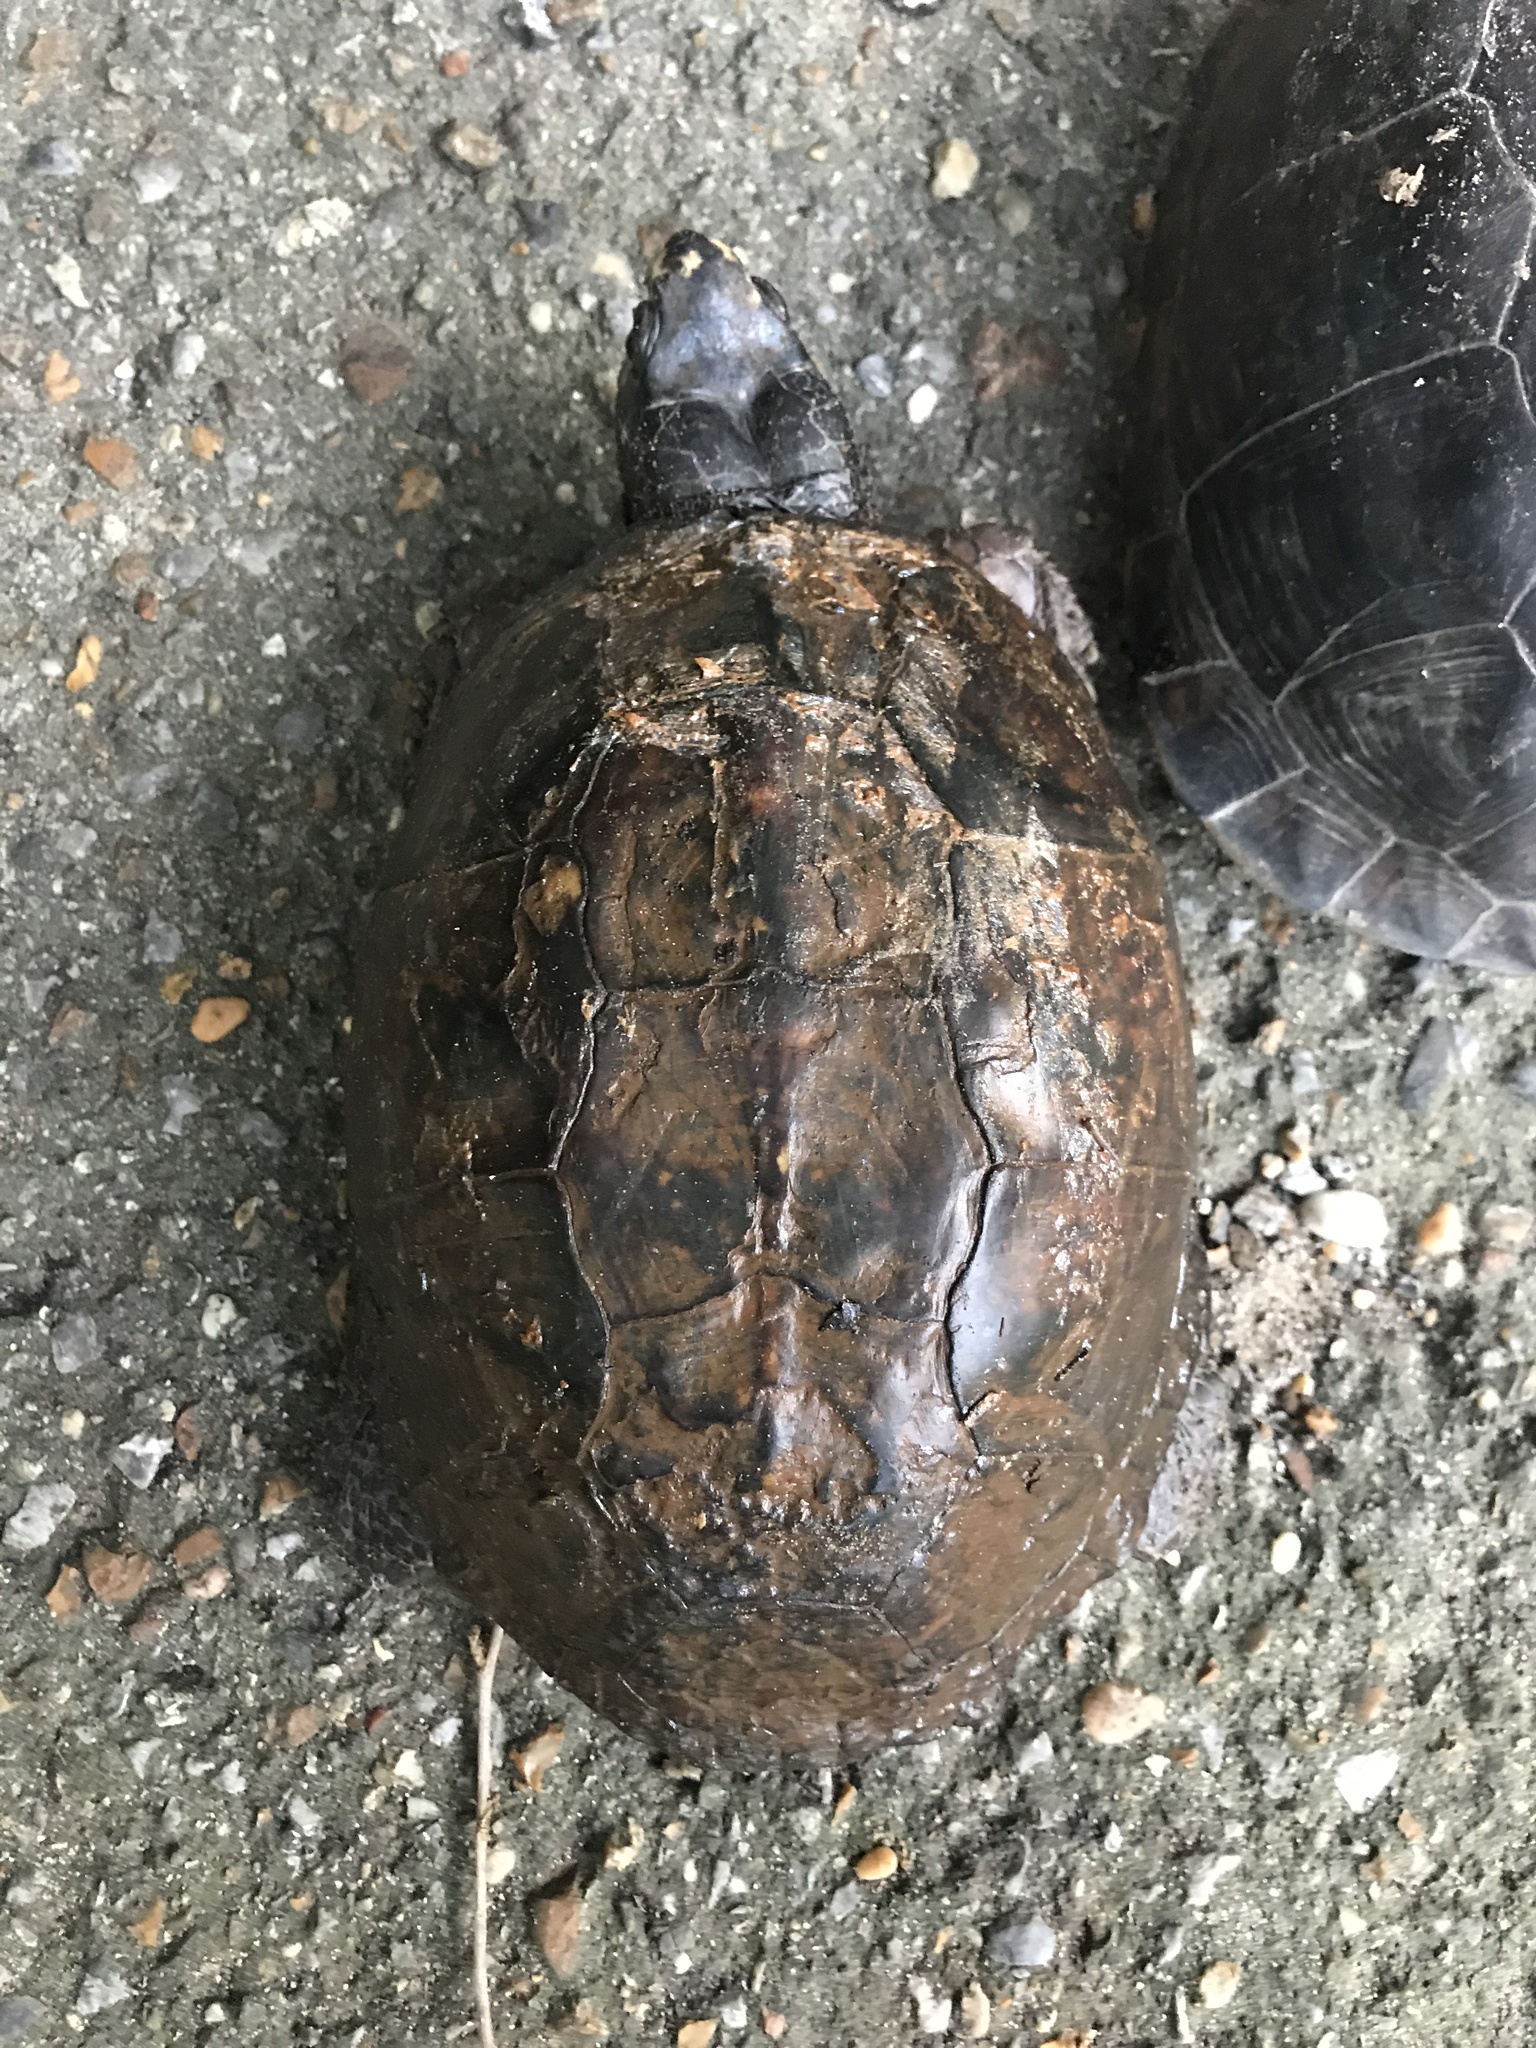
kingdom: Animalia
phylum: Chordata
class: Testudines
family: Emydidae
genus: Terrapene
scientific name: Terrapene carolina
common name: Common box turtle
